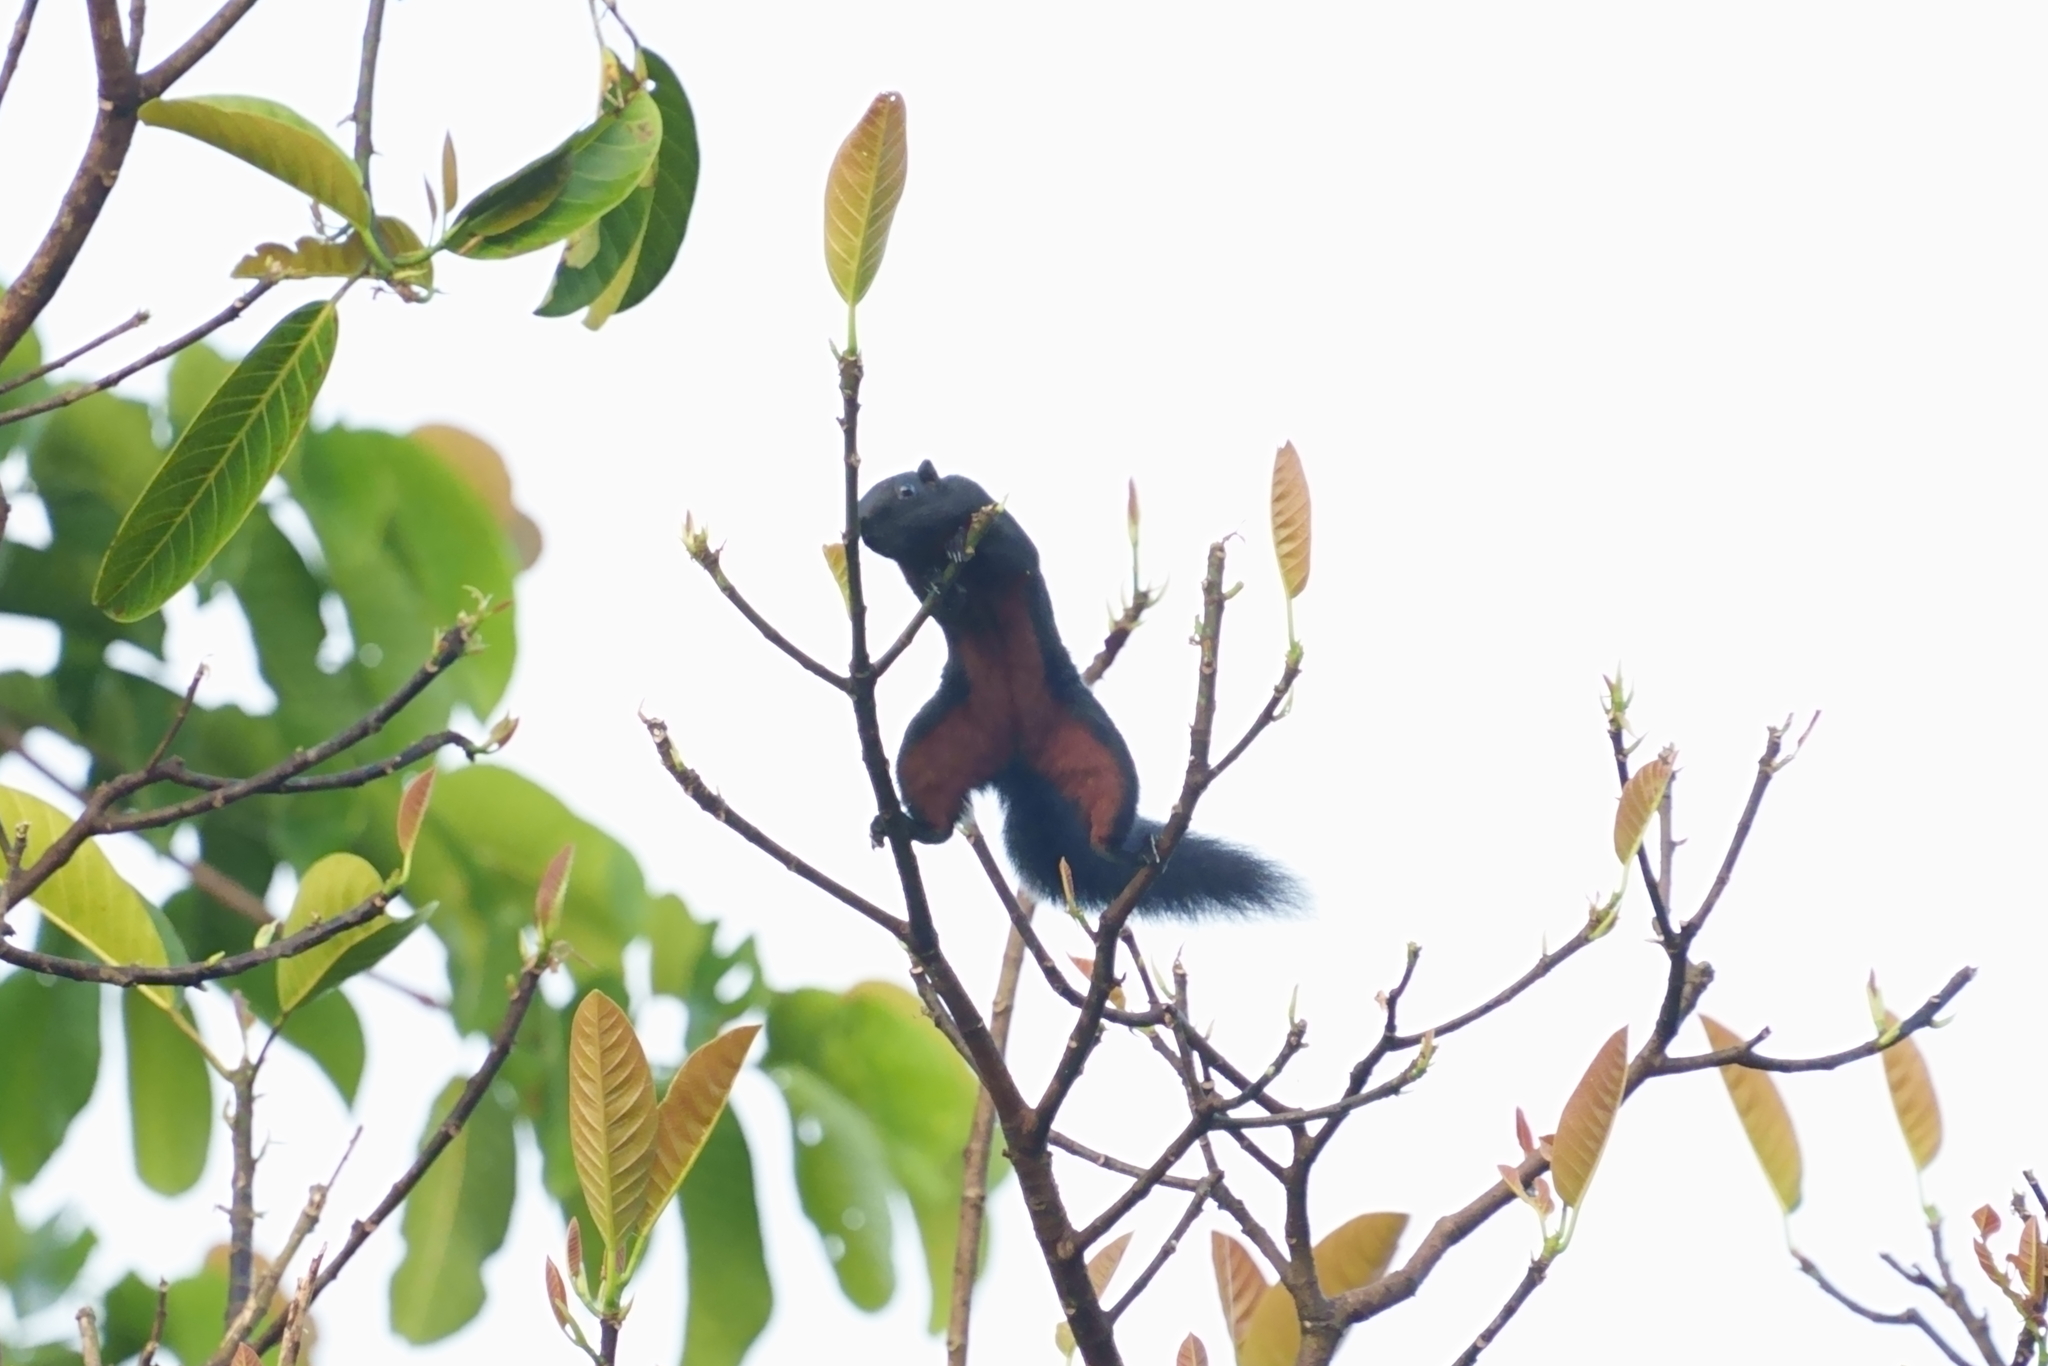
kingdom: Animalia
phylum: Chordata
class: Mammalia
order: Rodentia
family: Sciuridae
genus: Callosciurus
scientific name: Callosciurus prevostii
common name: Prevost's squirrel
